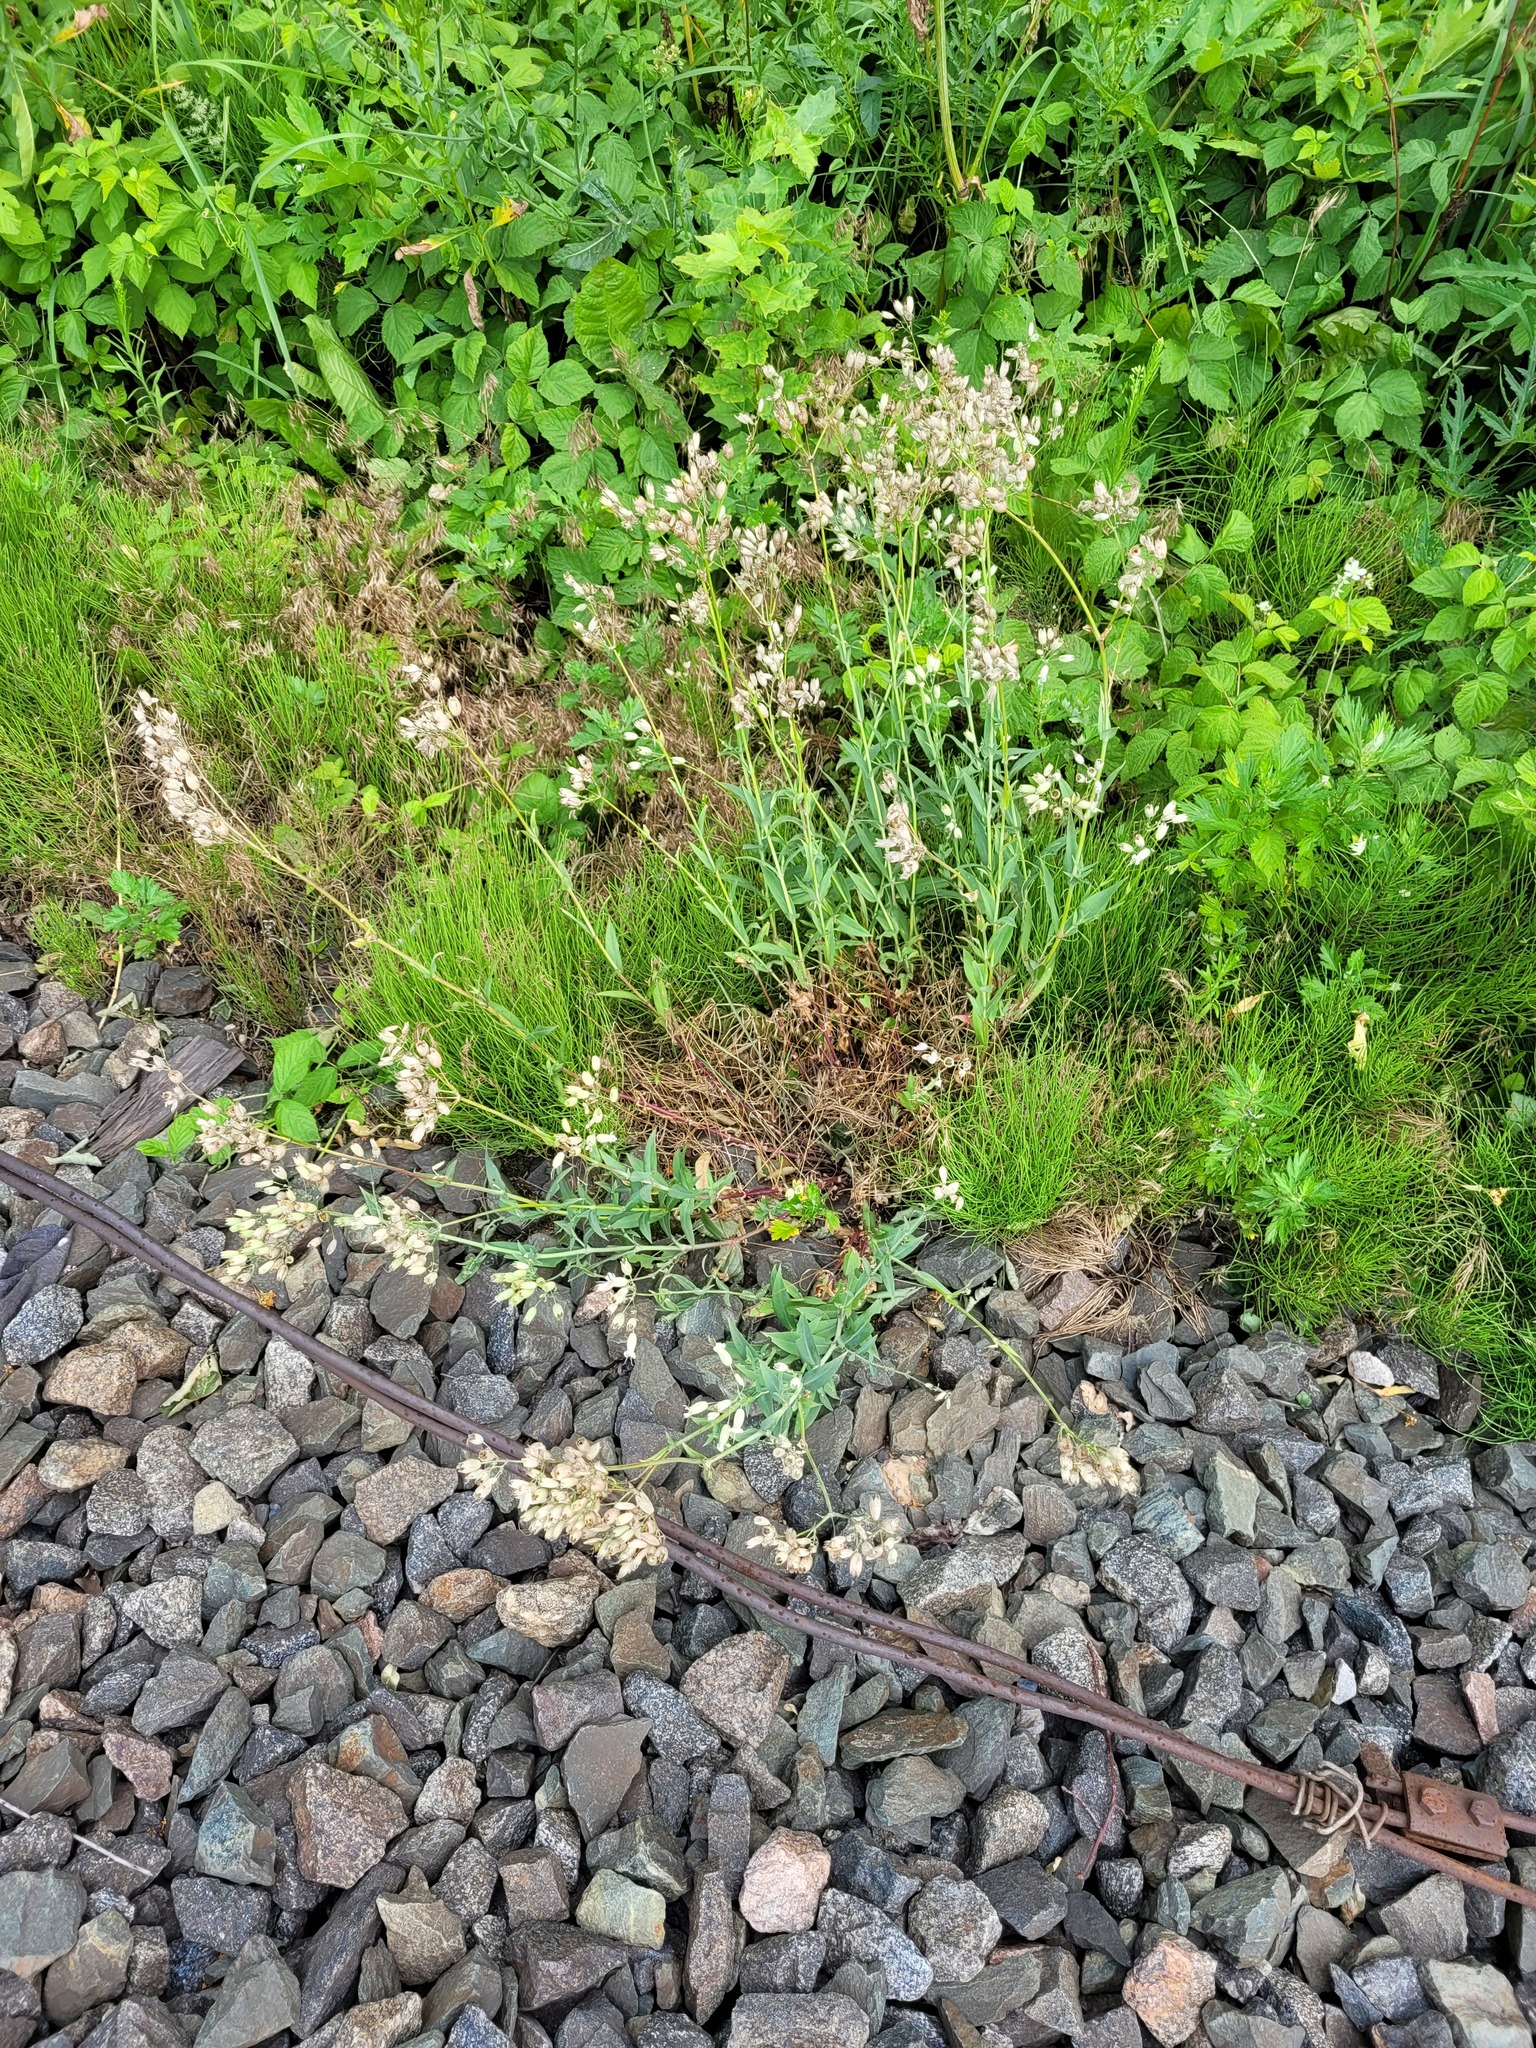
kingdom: Plantae
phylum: Tracheophyta
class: Magnoliopsida
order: Caryophyllales
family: Caryophyllaceae
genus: Silene
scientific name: Silene vulgaris
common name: Bladder campion
